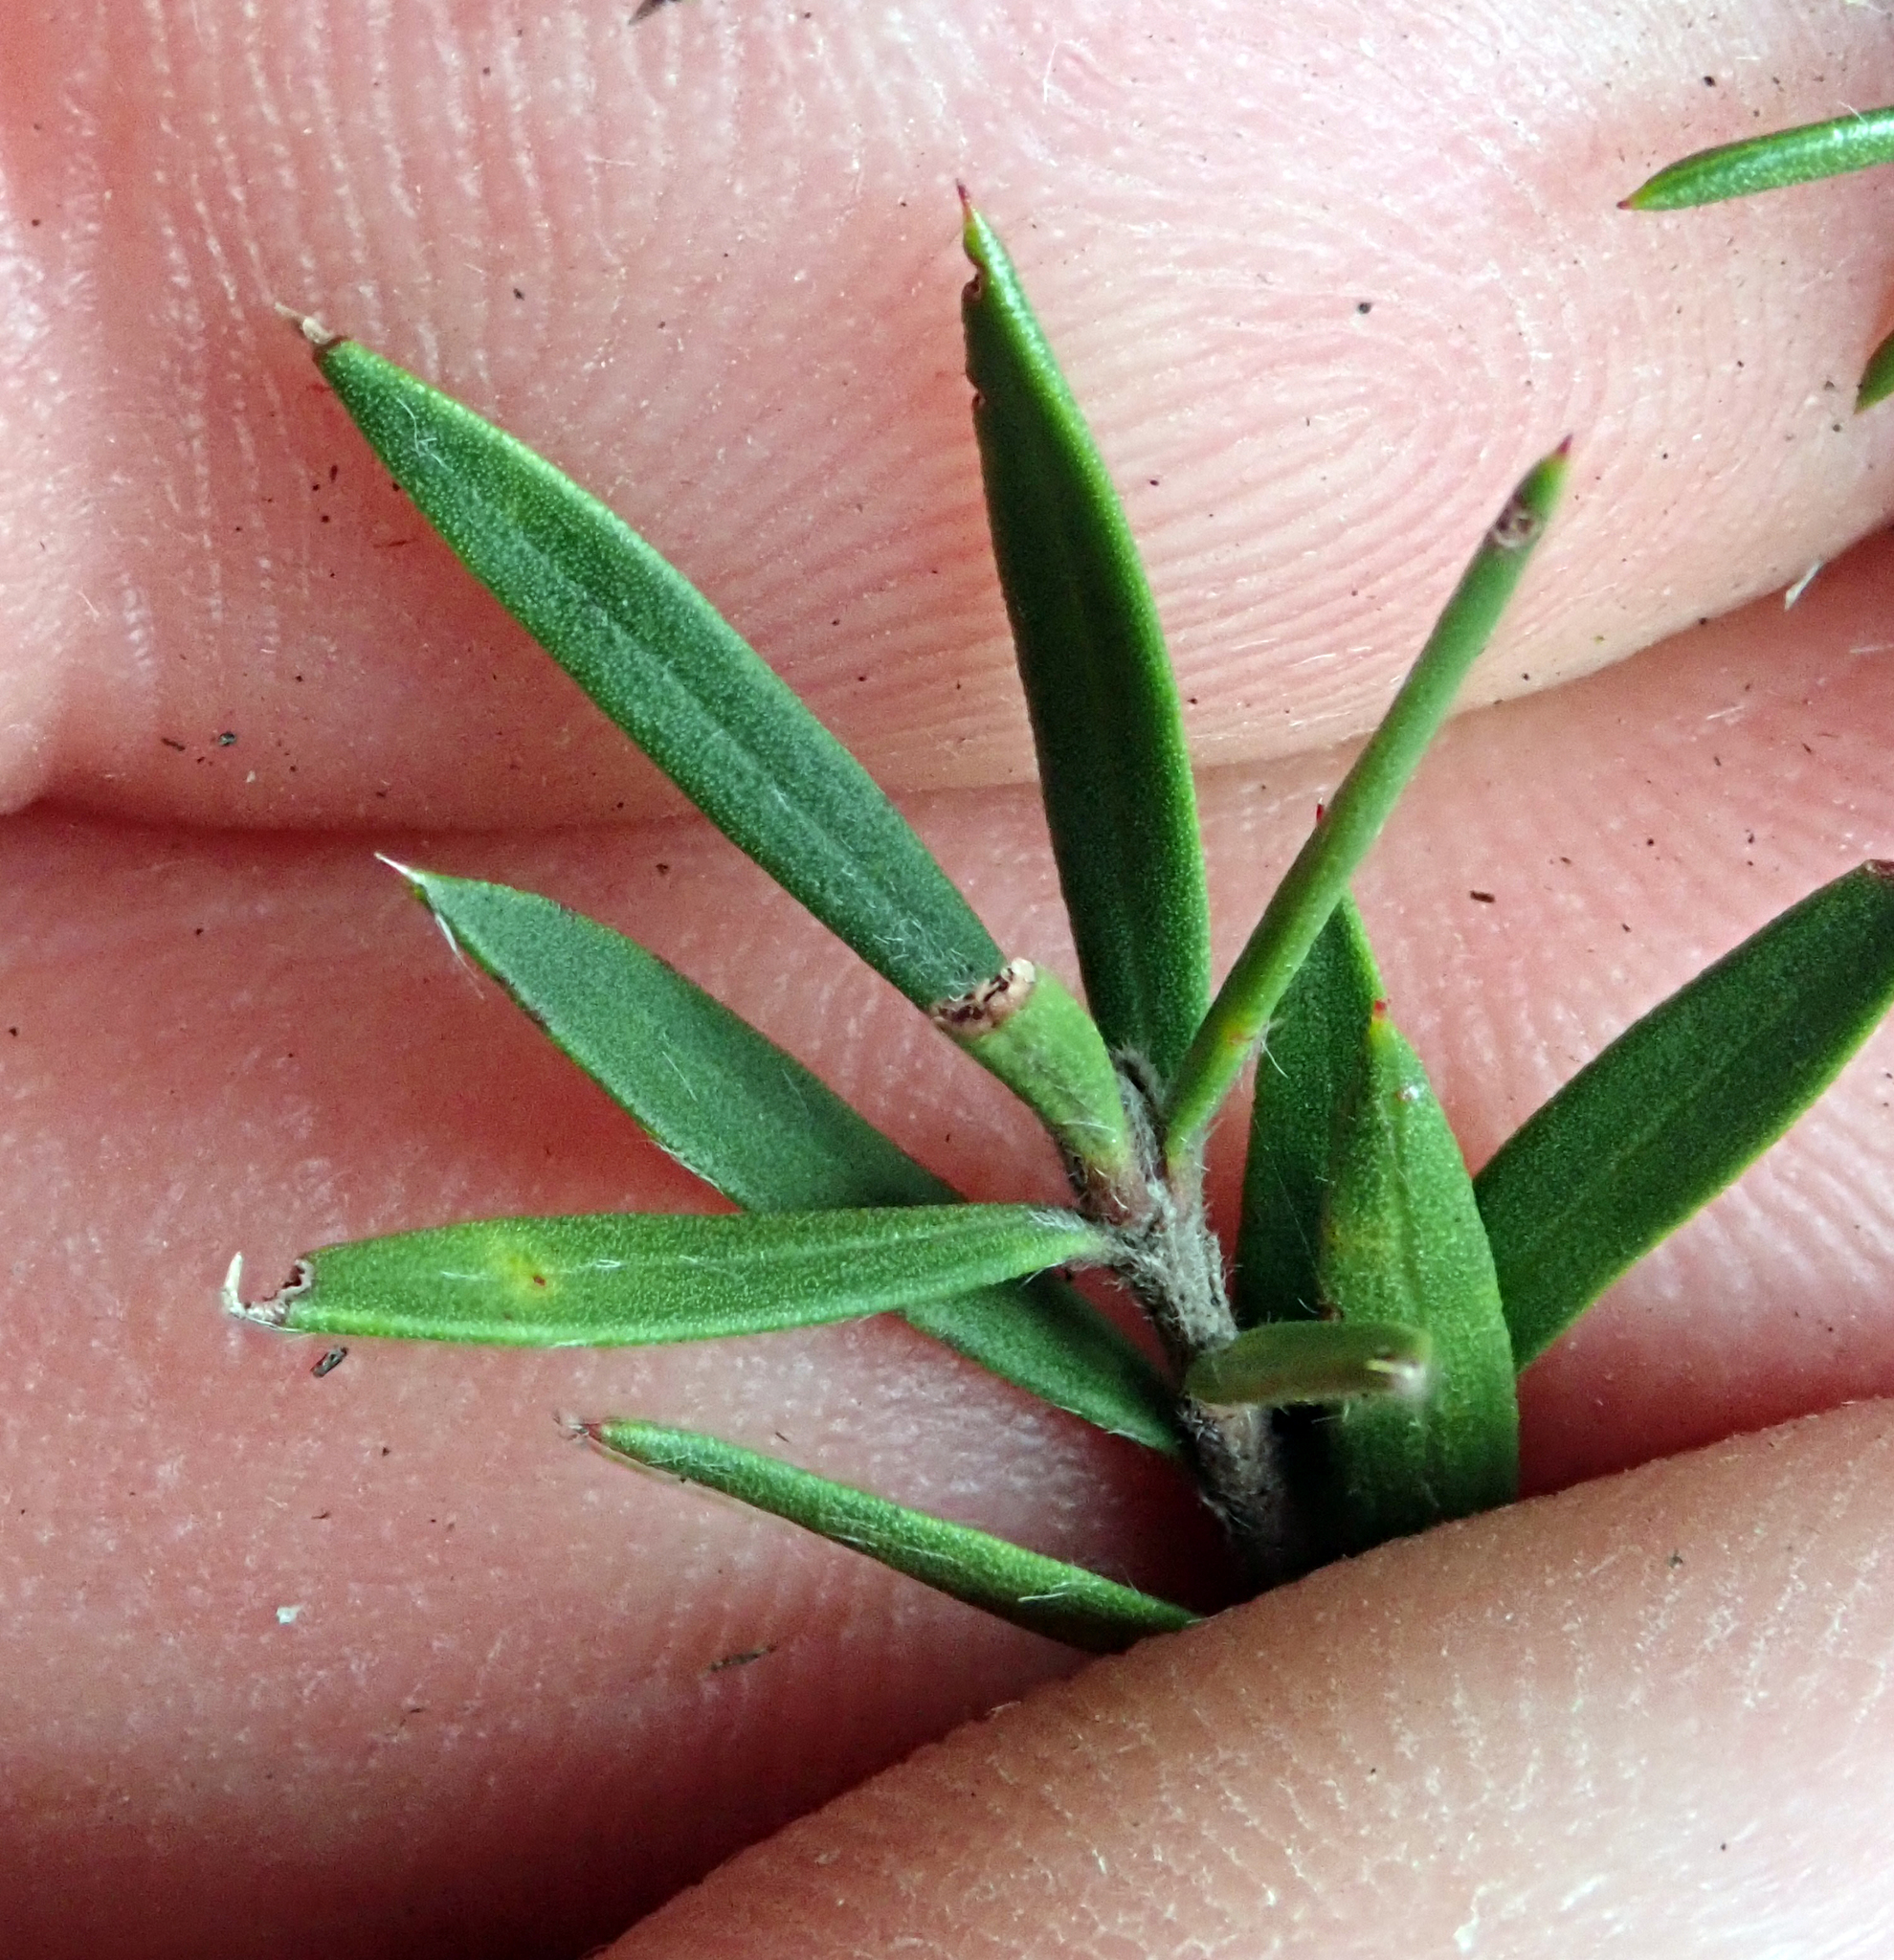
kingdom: Plantae
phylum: Tracheophyta
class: Magnoliopsida
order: Myrtales
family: Myrtaceae
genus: Leptospermum
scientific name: Leptospermum scoparium
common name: Broom tea-tree
